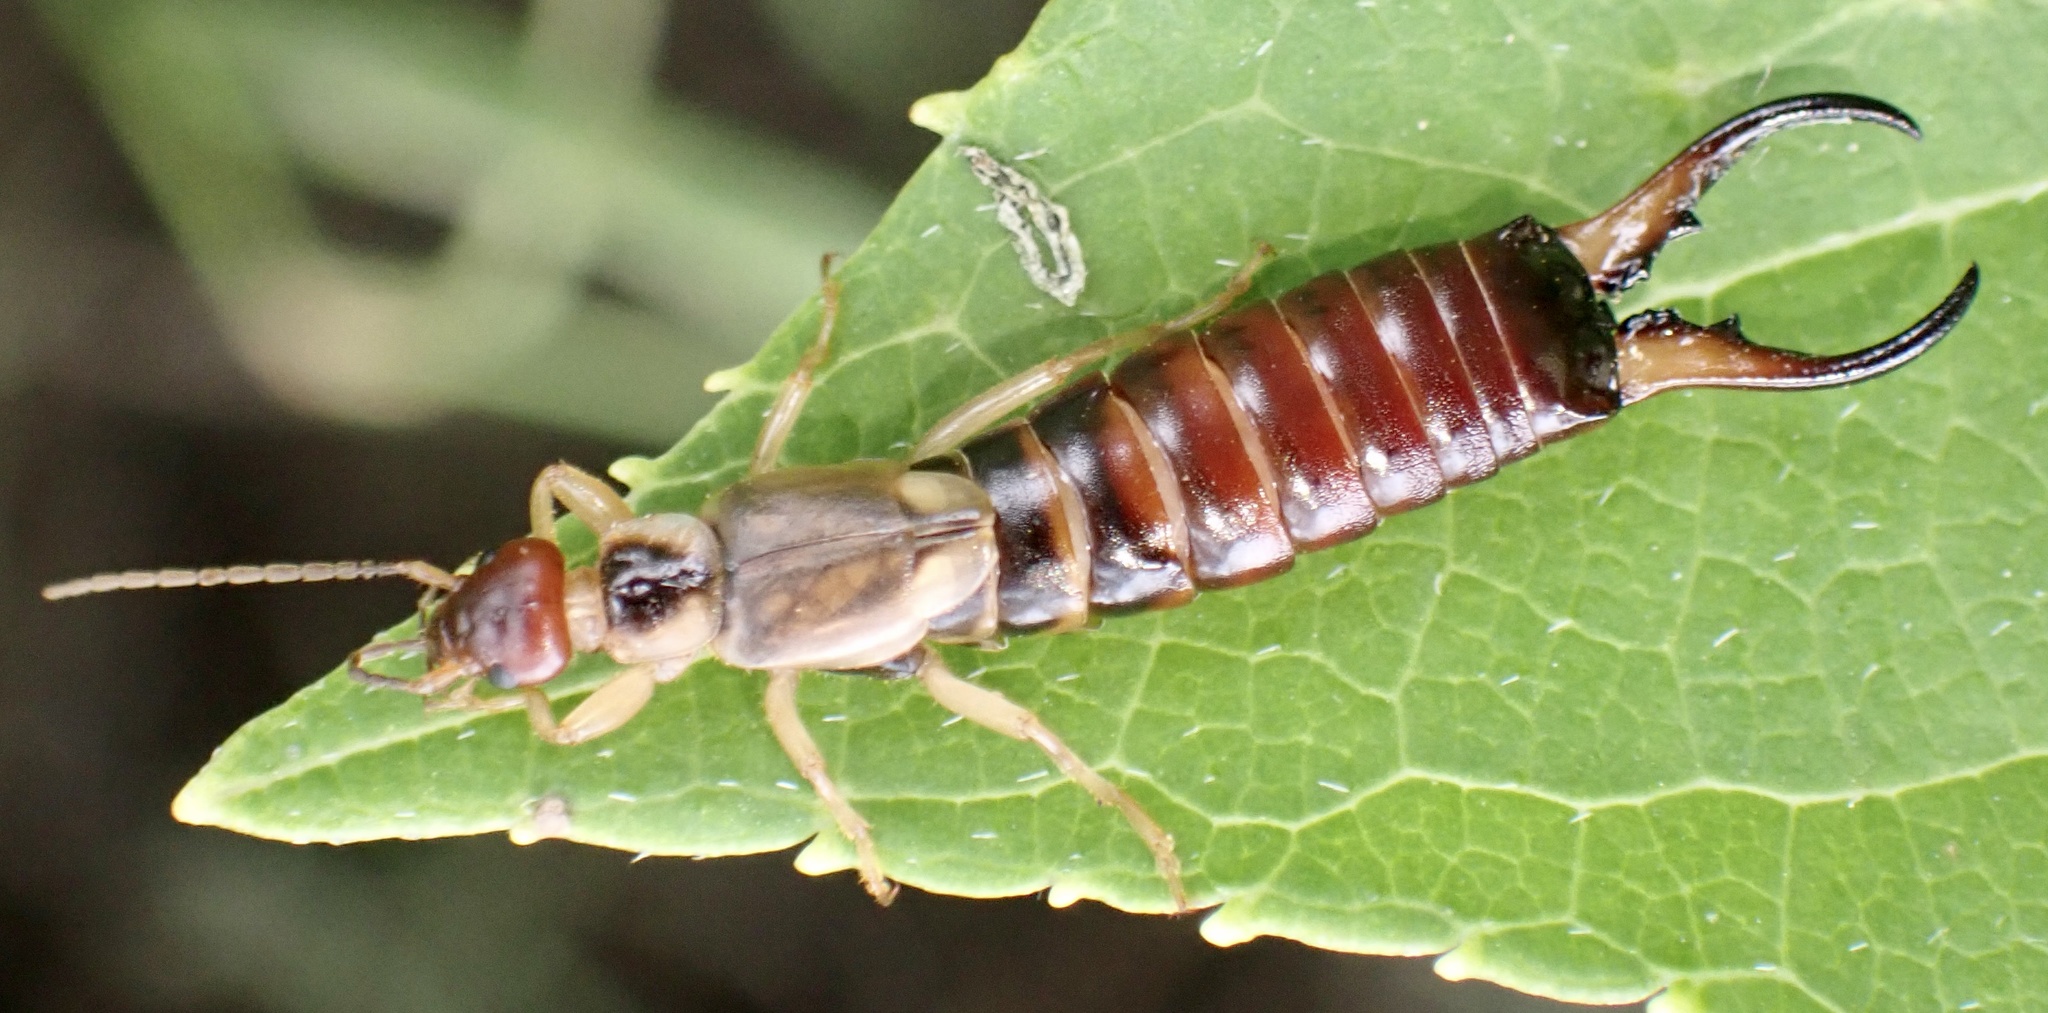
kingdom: Animalia
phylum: Arthropoda
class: Insecta
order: Dermaptera
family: Forficulidae
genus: Forficula
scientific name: Forficula
